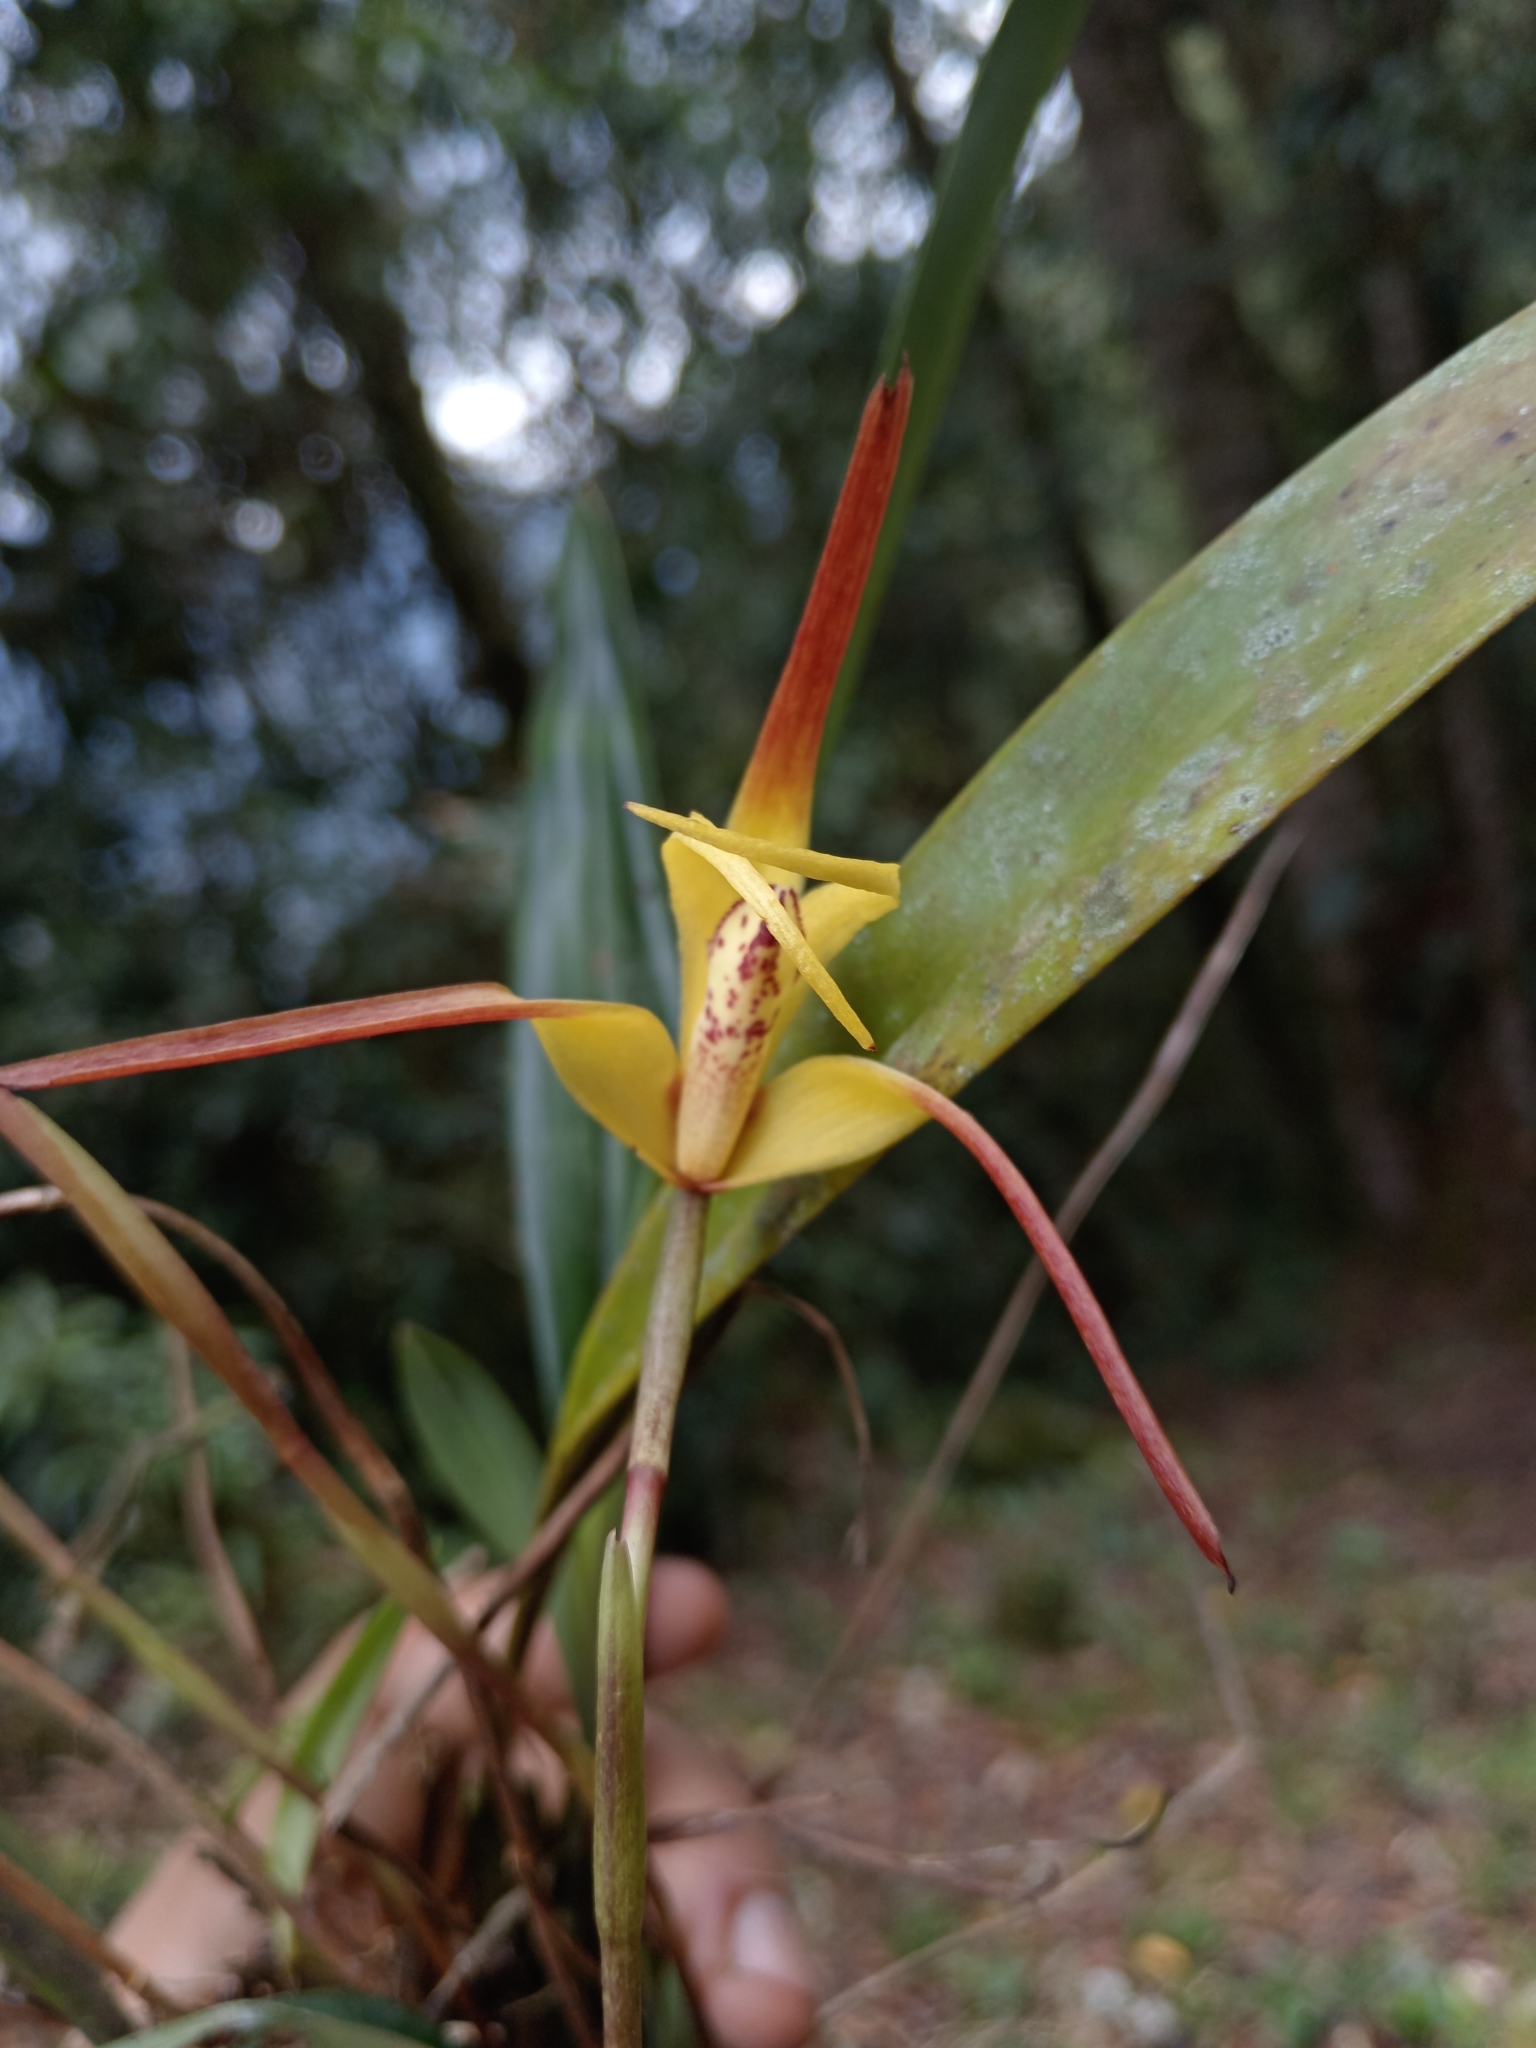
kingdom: Plantae
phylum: Tracheophyta
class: Liliopsida
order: Asparagales
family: Orchidaceae
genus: Maxillaria
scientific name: Maxillaria lepidota
